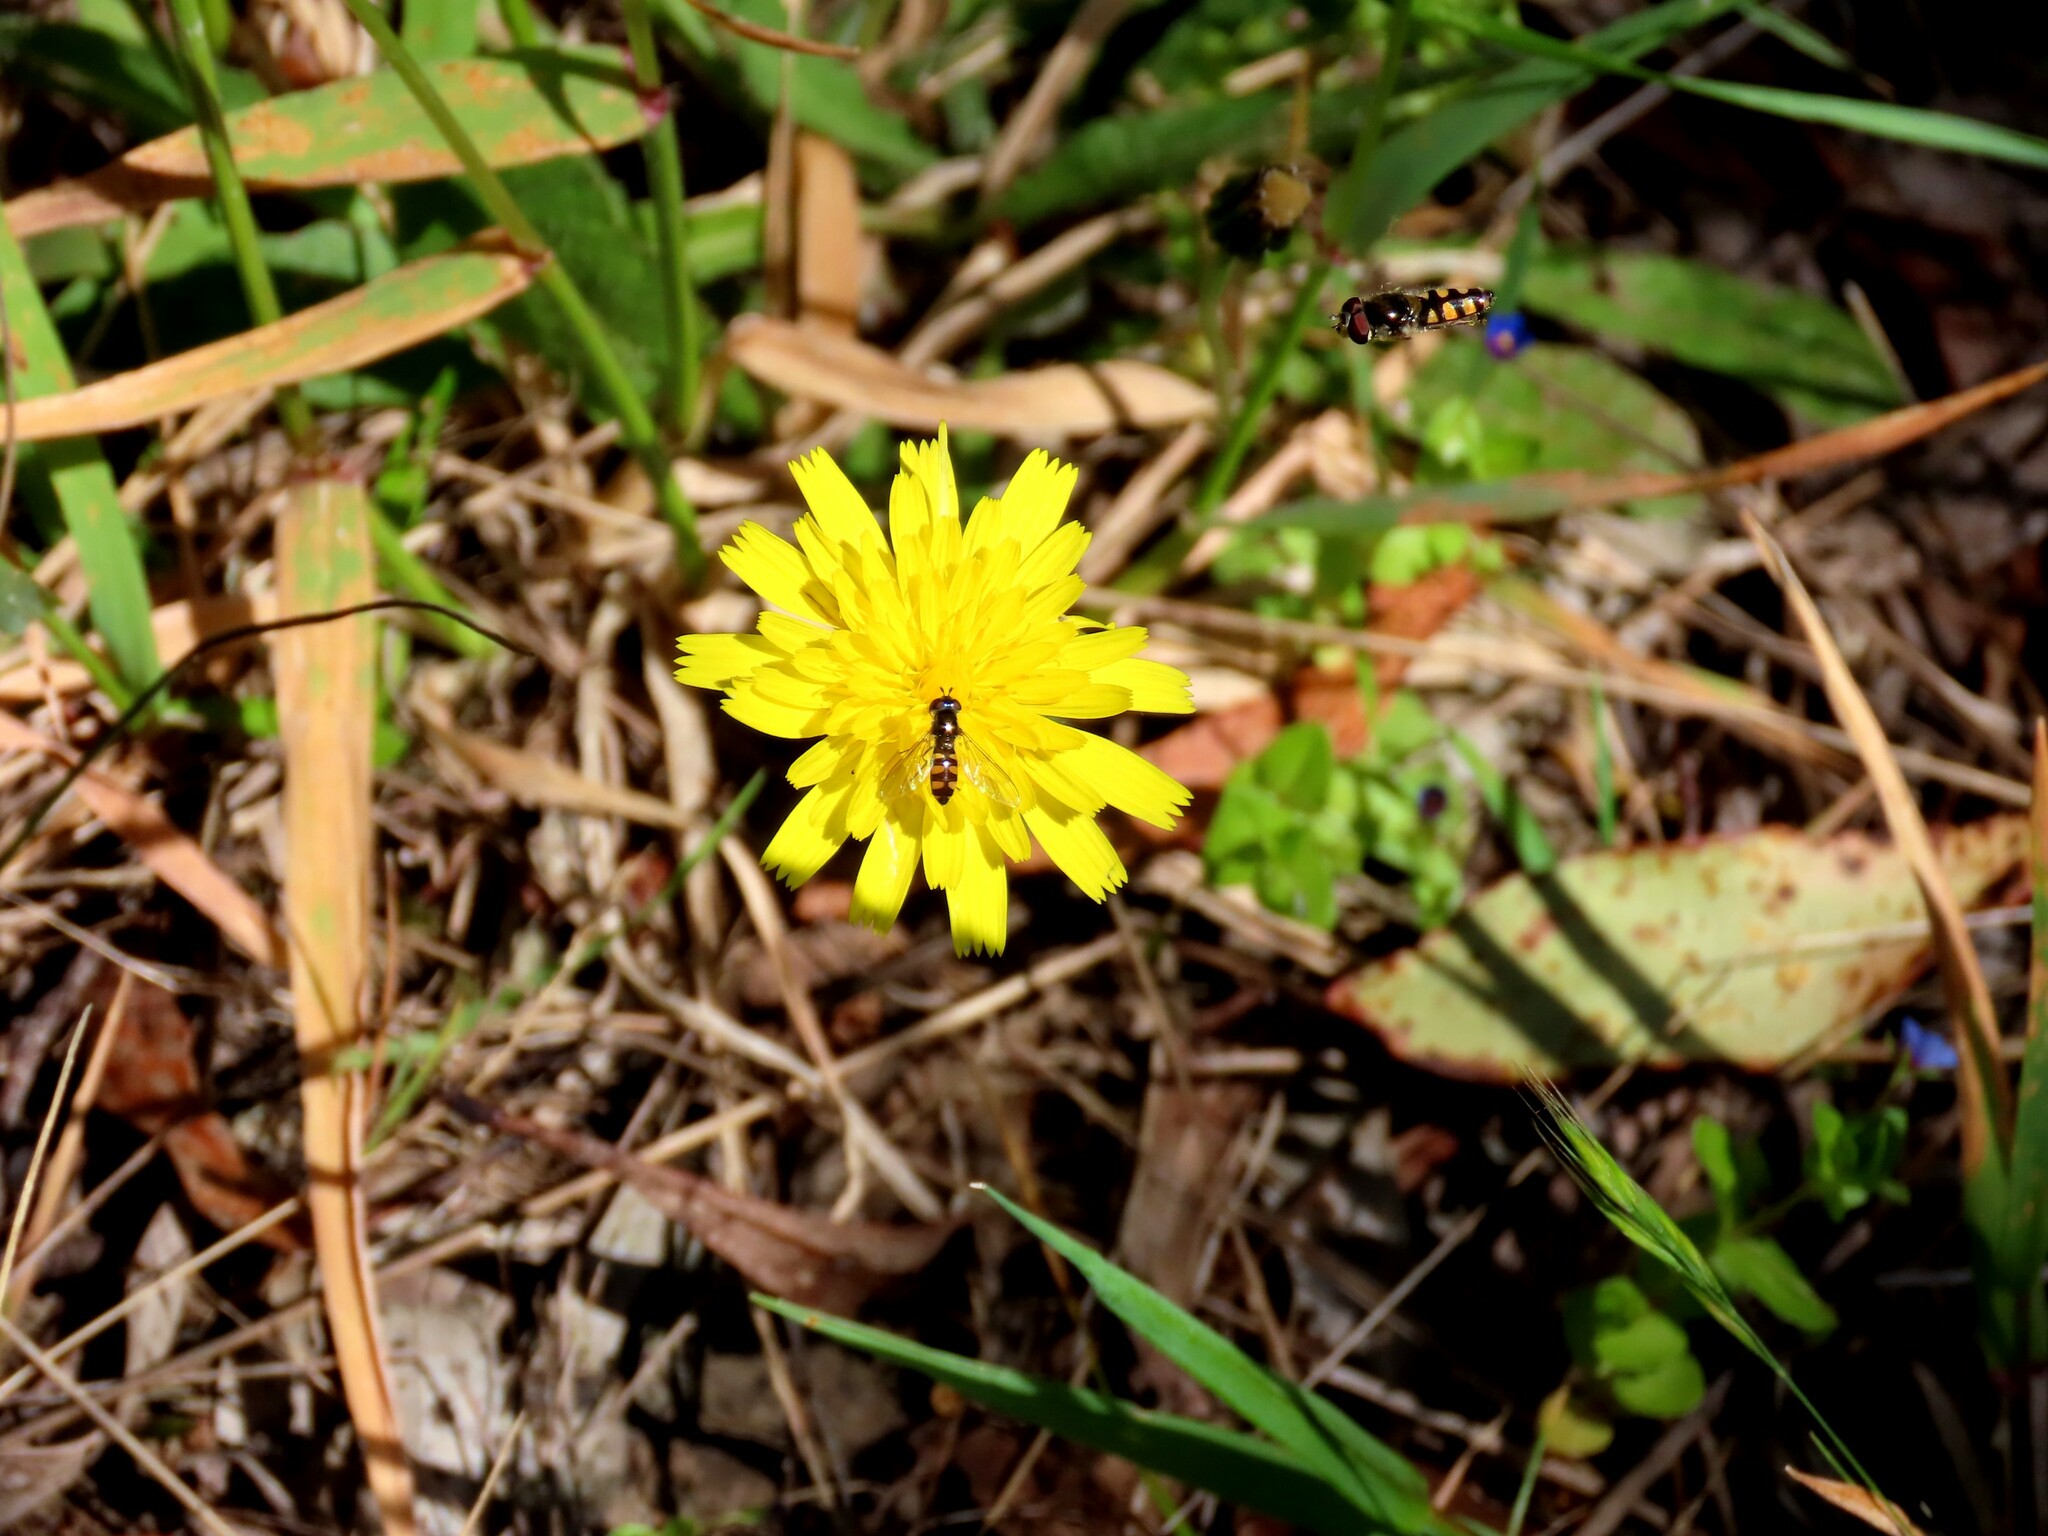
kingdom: Animalia
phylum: Arthropoda
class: Insecta
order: Diptera
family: Syrphidae
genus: Melangyna
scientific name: Melangyna viridiceps
